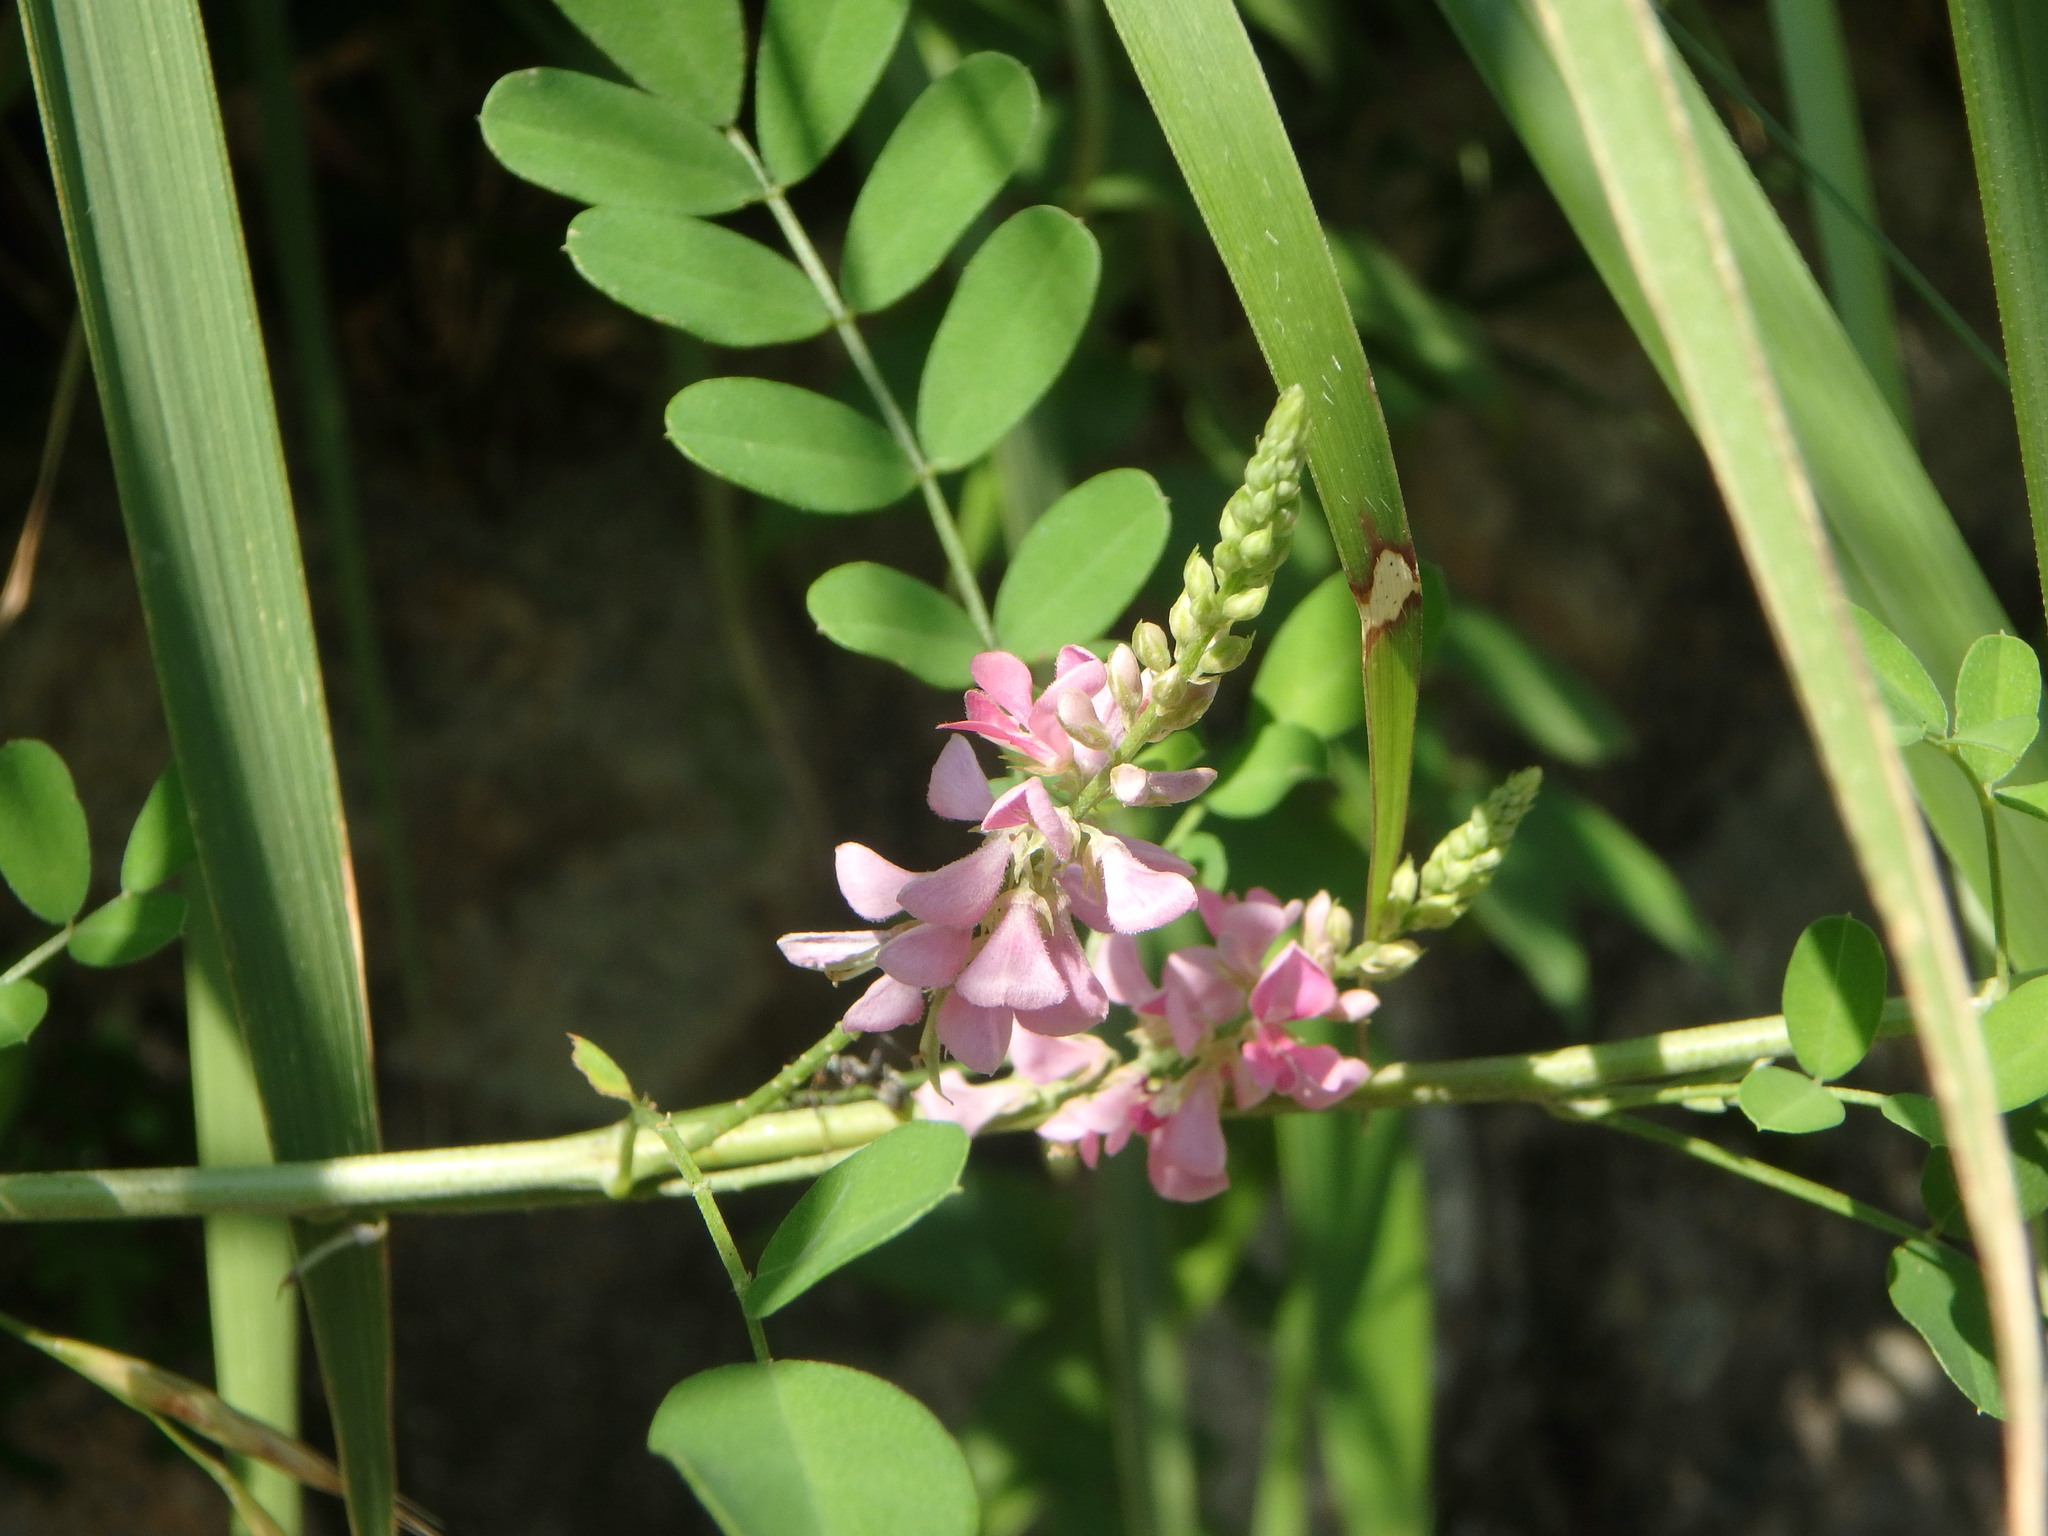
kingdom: Plantae
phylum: Tracheophyta
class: Magnoliopsida
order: Fabales
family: Fabaceae
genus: Indigofera
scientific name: Indigofera bungeana
